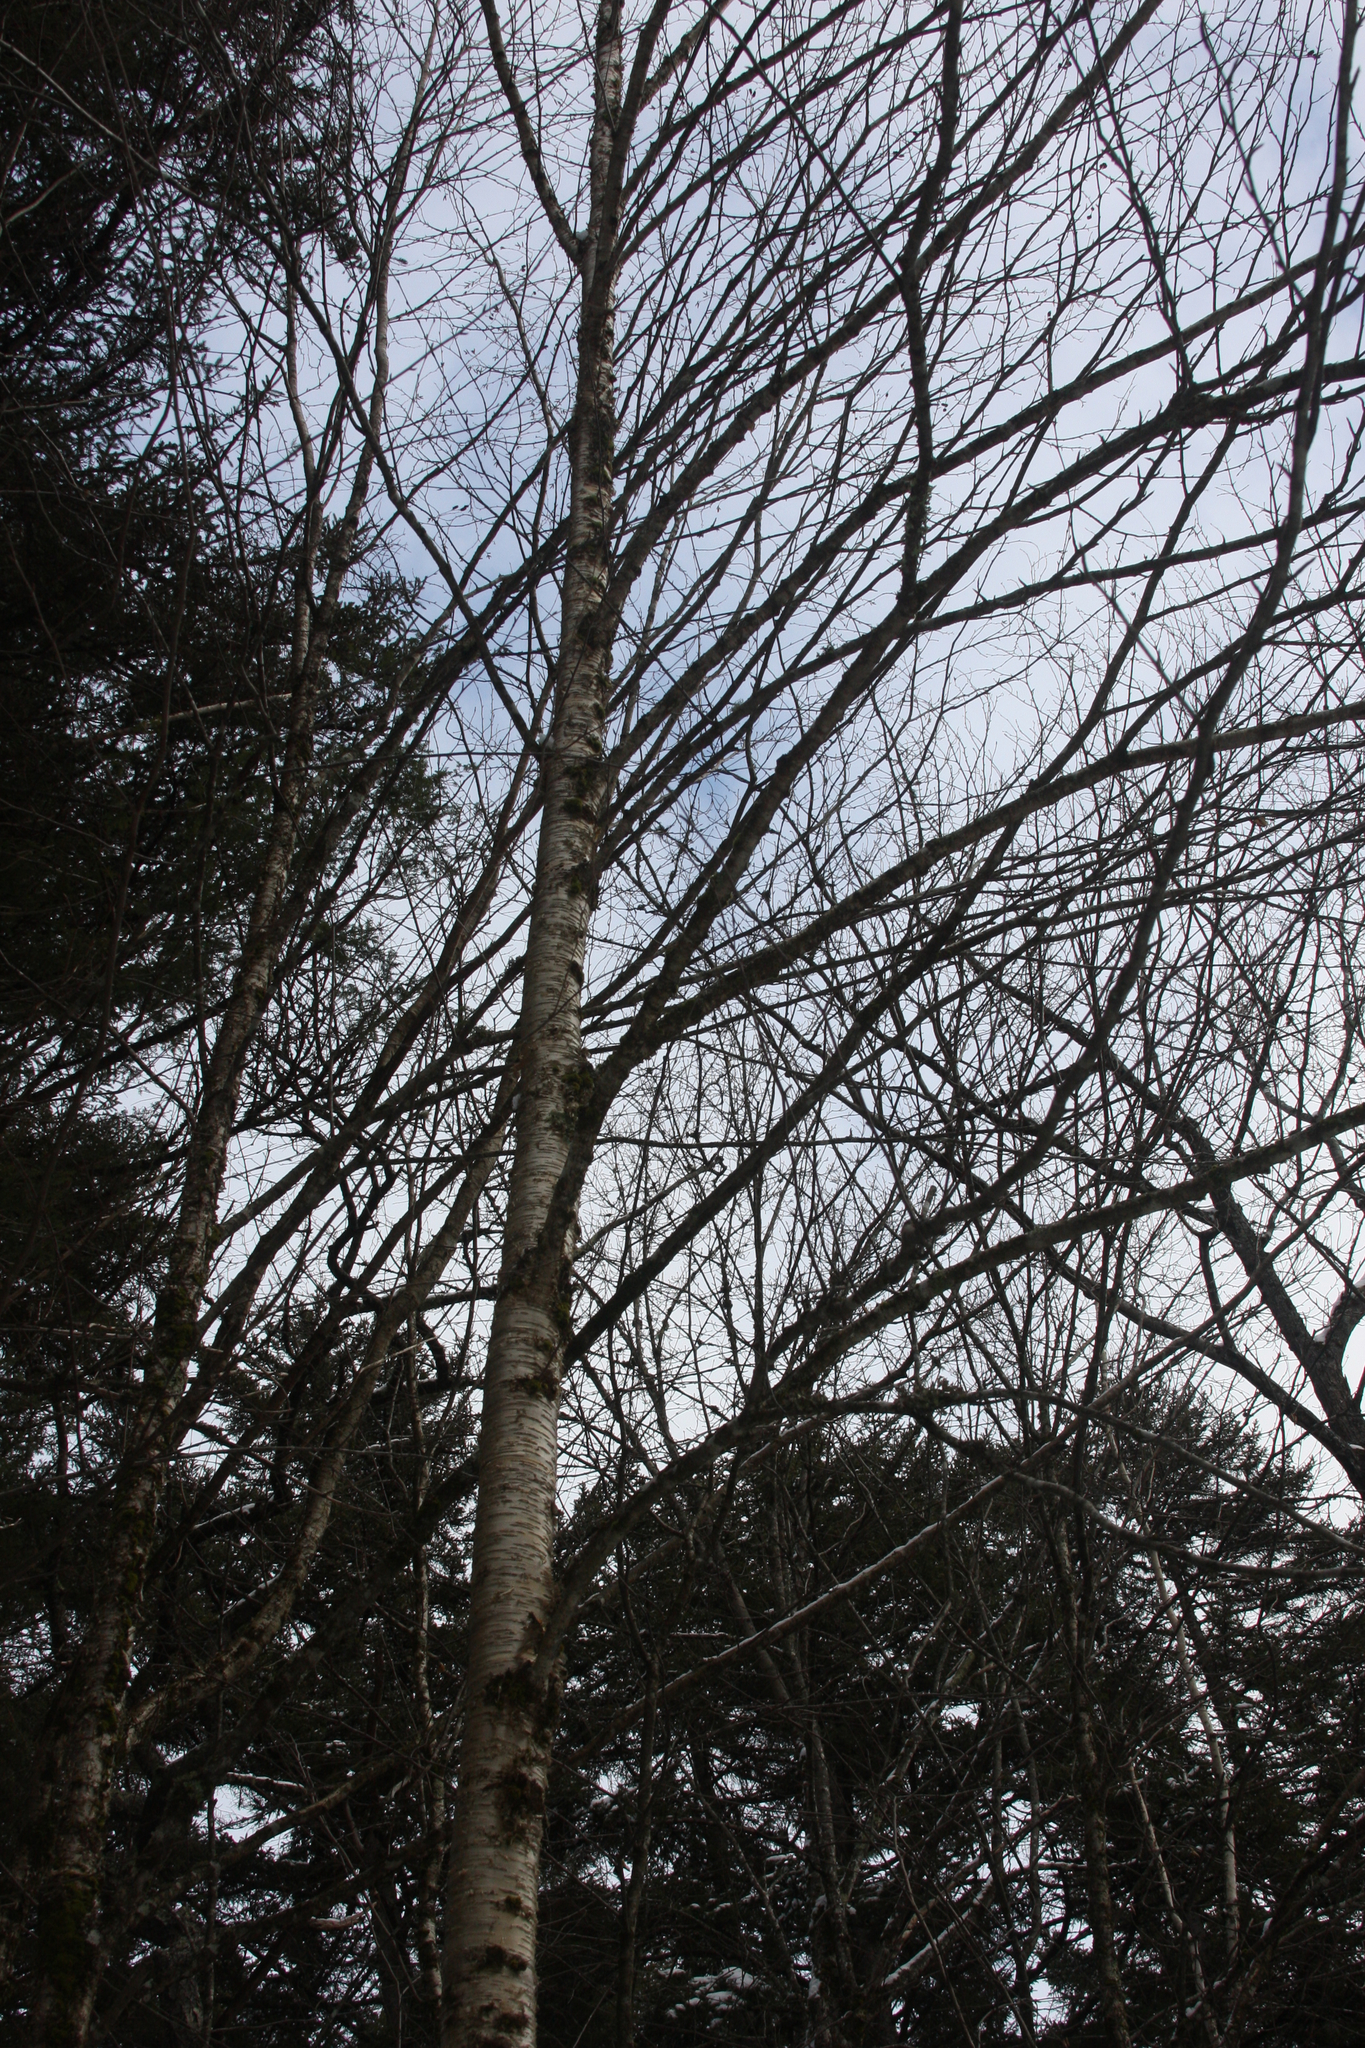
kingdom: Plantae
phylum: Tracheophyta
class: Magnoliopsida
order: Fagales
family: Betulaceae
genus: Betula
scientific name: Betula alleghaniensis
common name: Yellow birch
